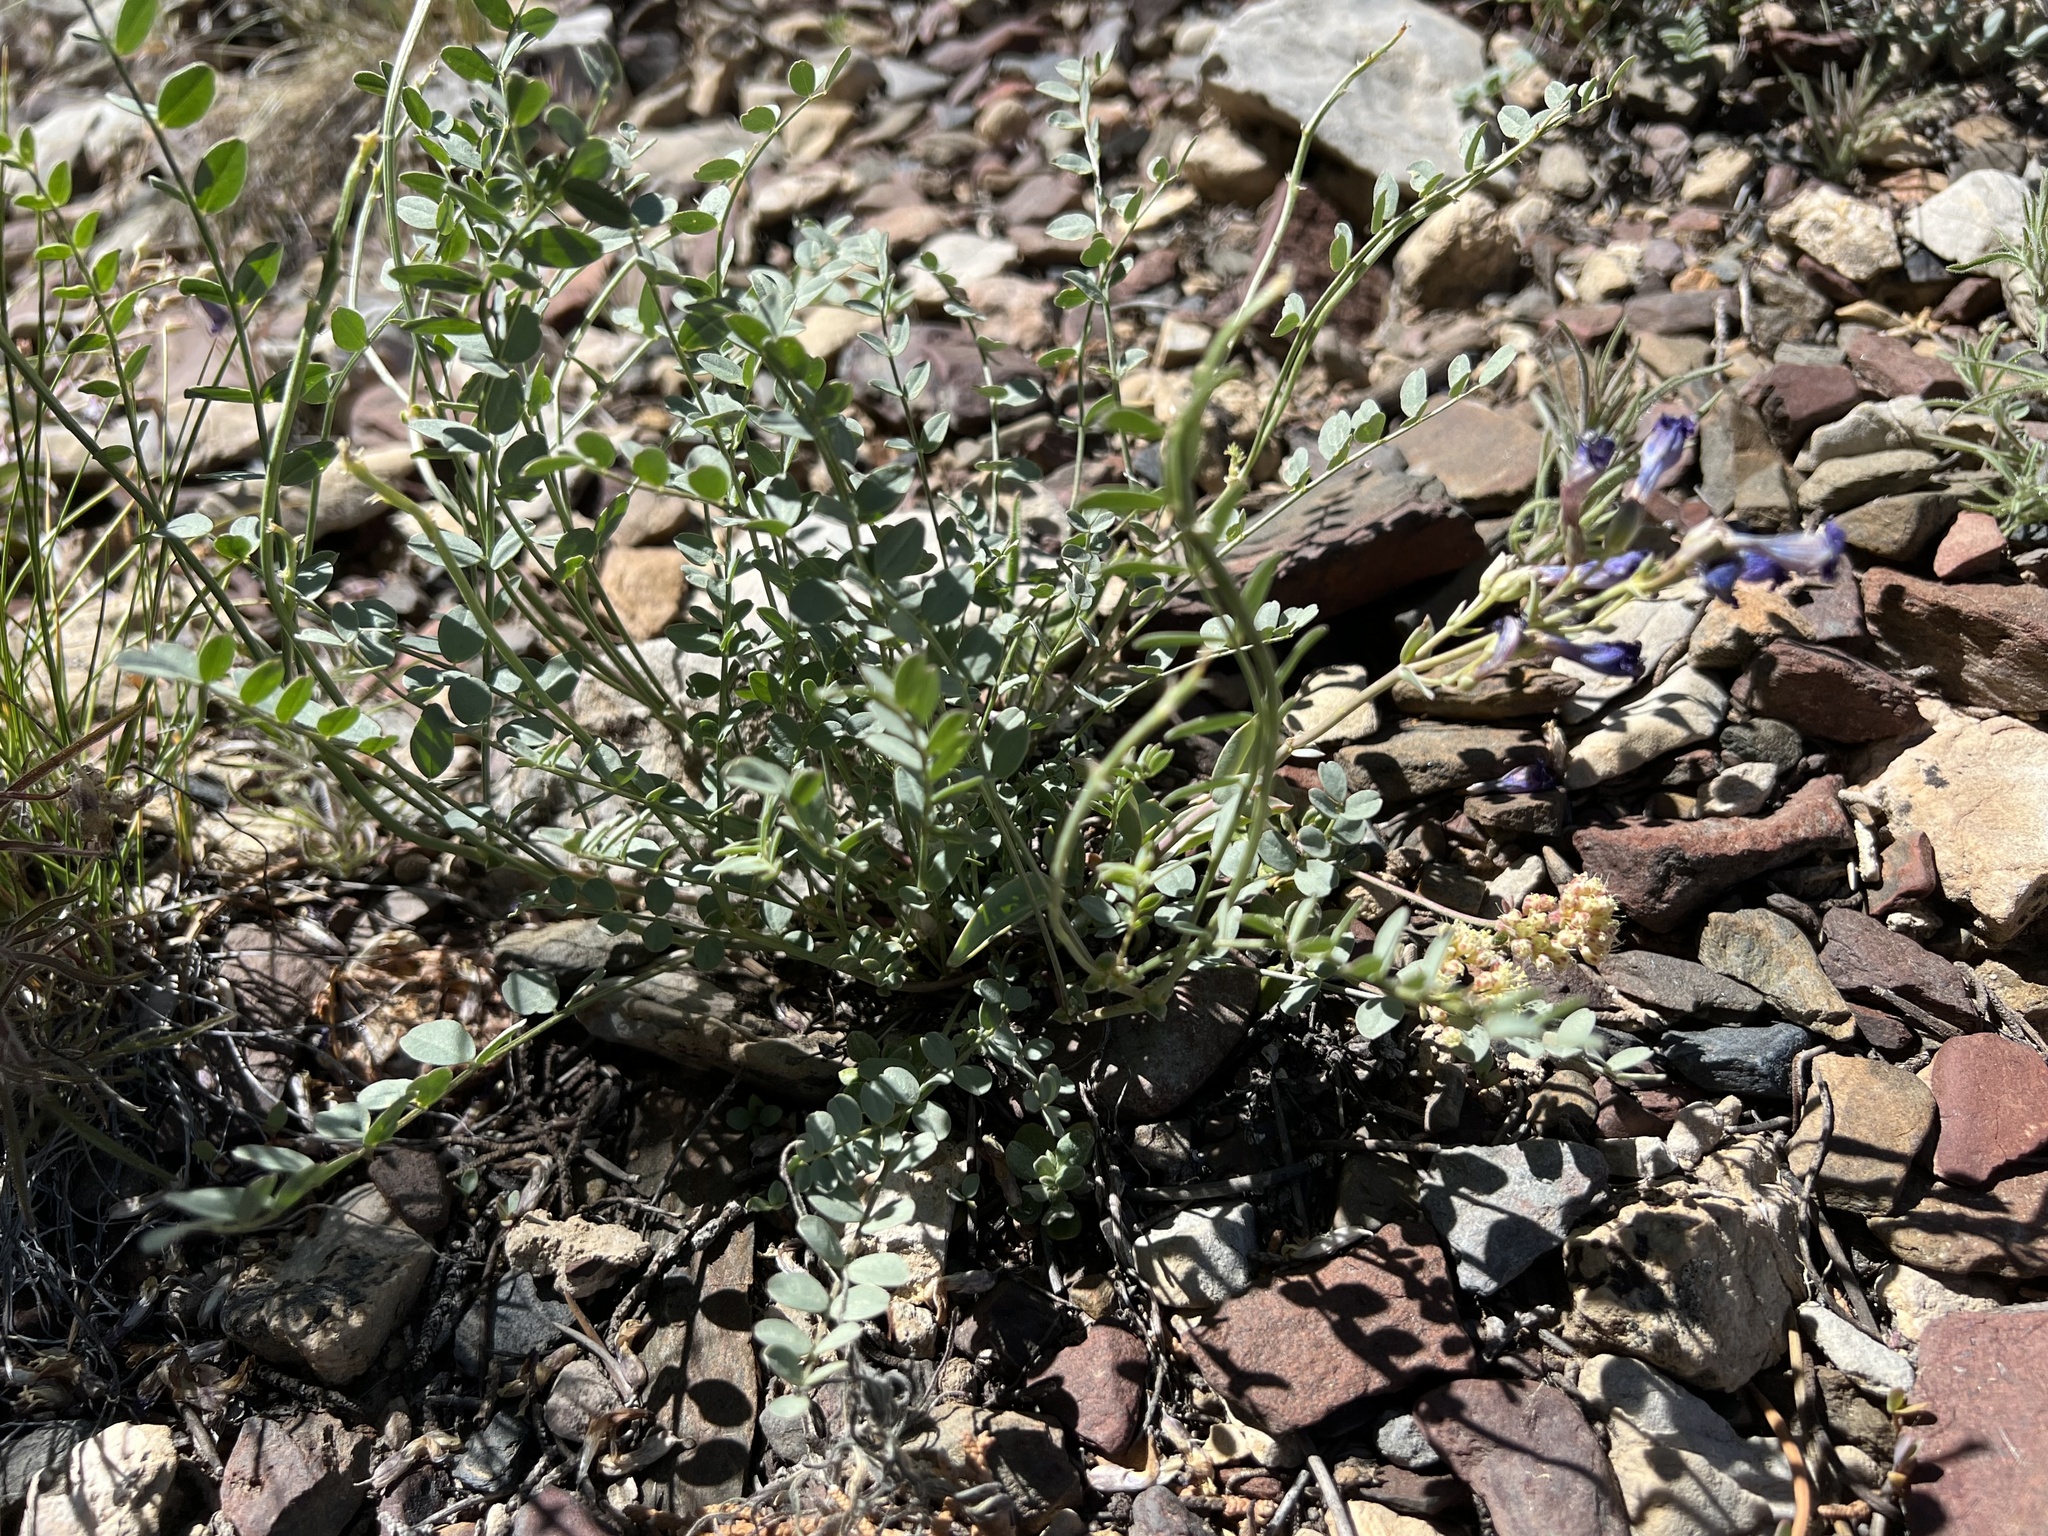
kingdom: Plantae
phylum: Tracheophyta
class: Magnoliopsida
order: Fabales
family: Fabaceae
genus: Astragalus
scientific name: Astragalus oophorus
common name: Egg milkvetch
